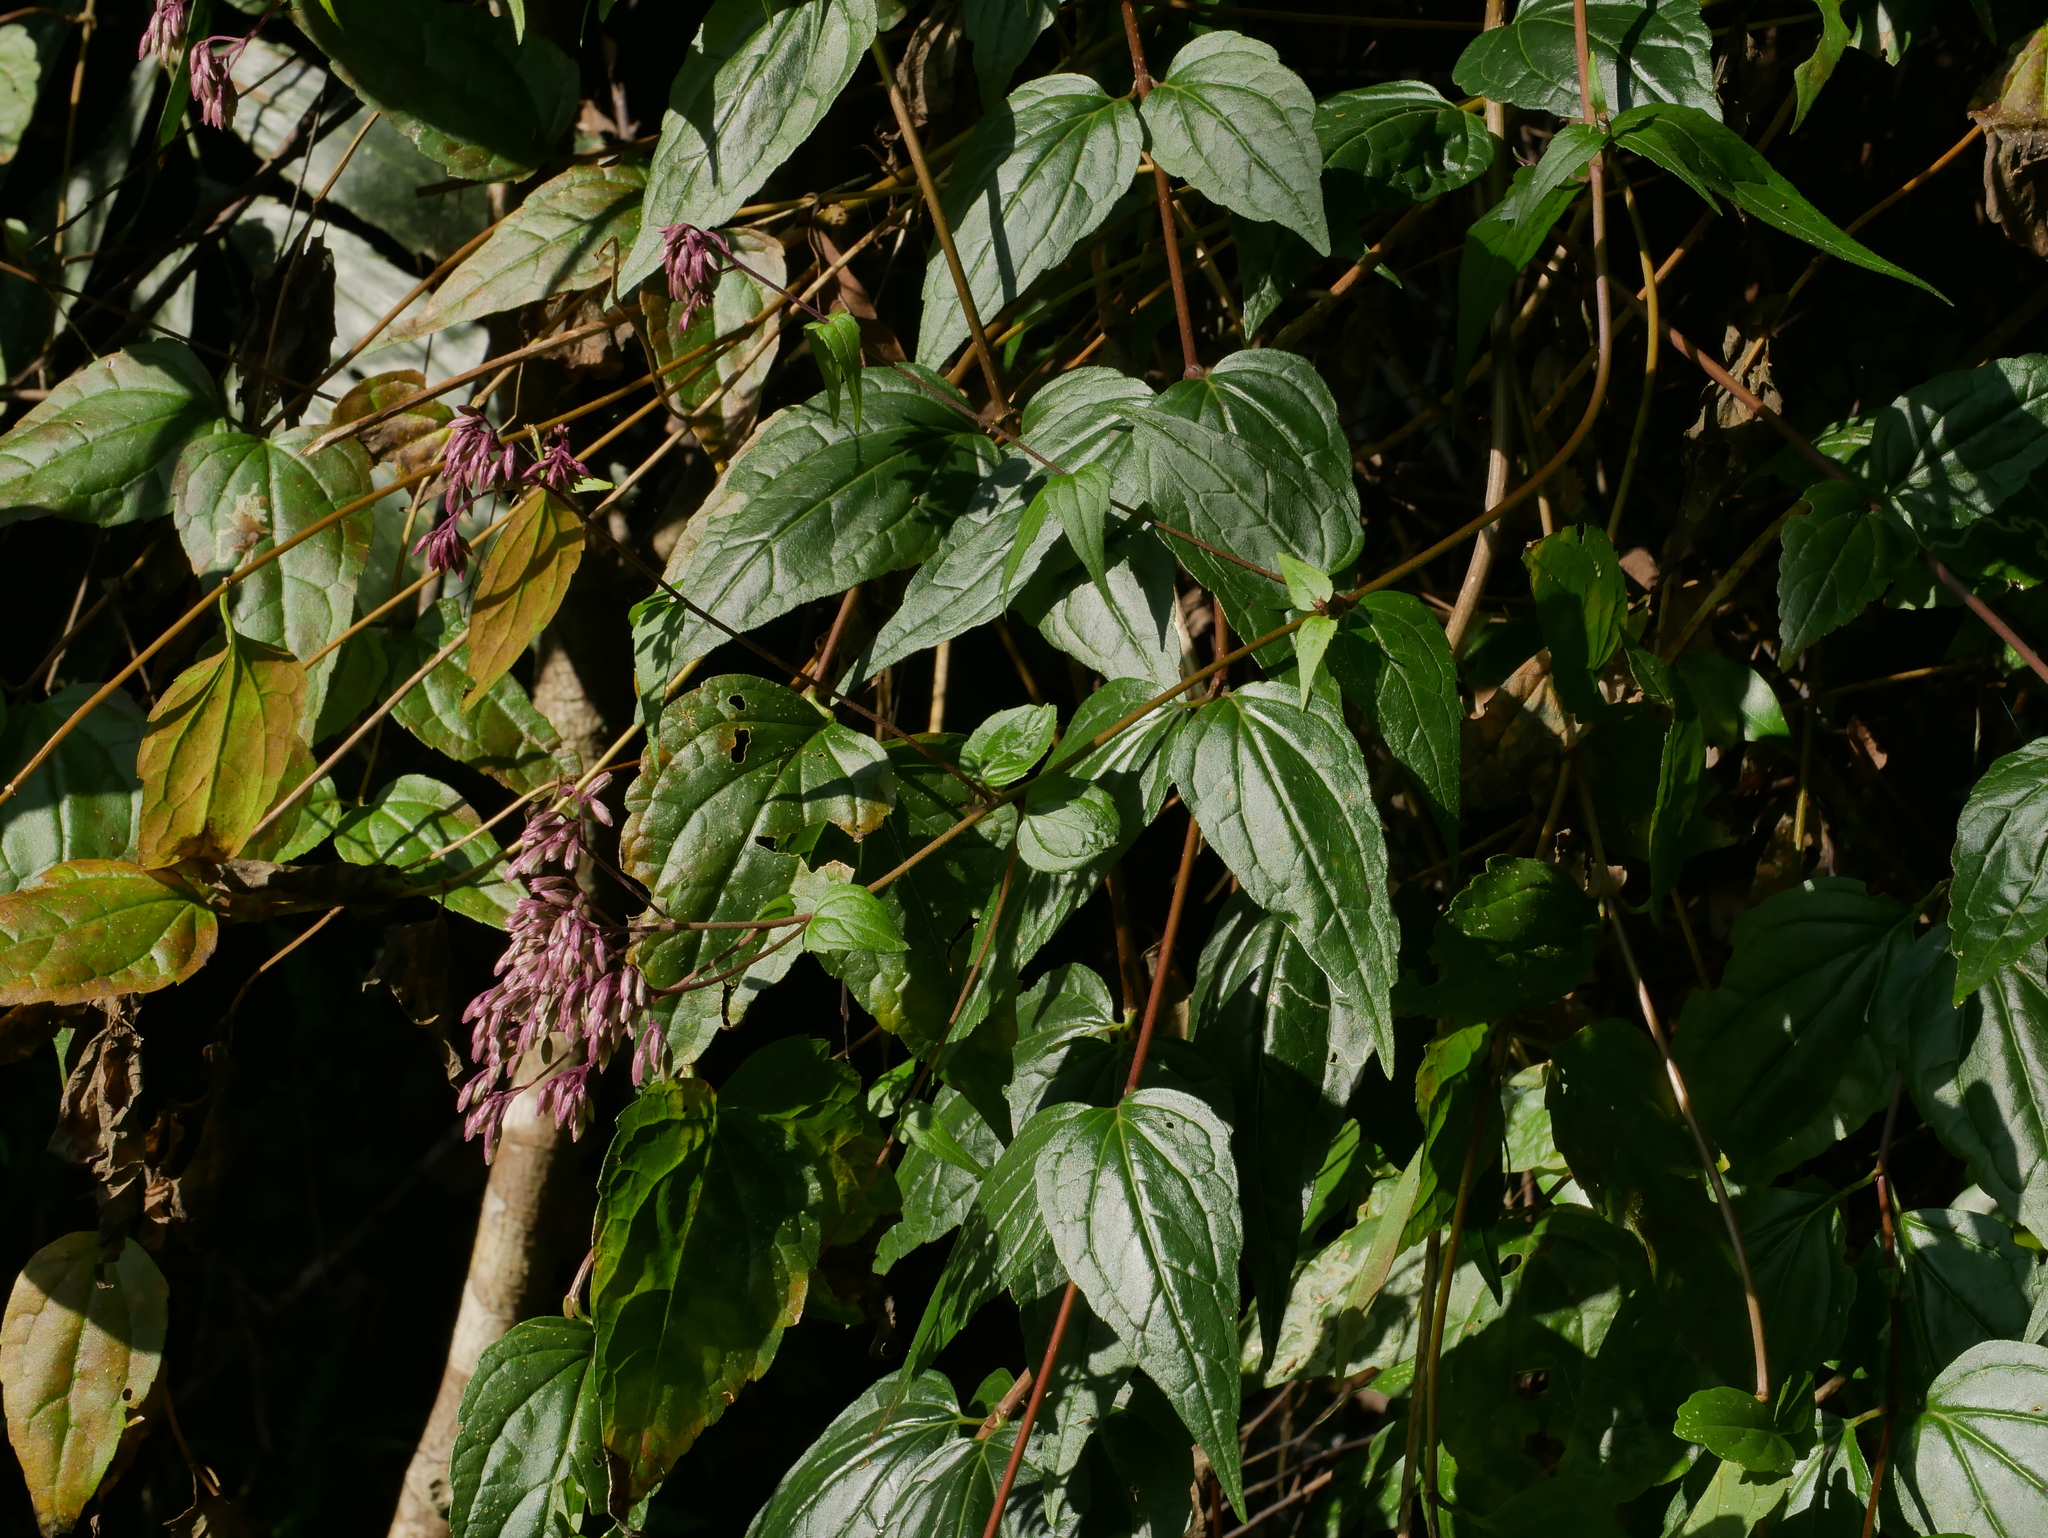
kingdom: Plantae
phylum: Tracheophyta
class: Magnoliopsida
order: Asterales
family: Asteraceae
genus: Eupatorium
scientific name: Eupatorium amabile
